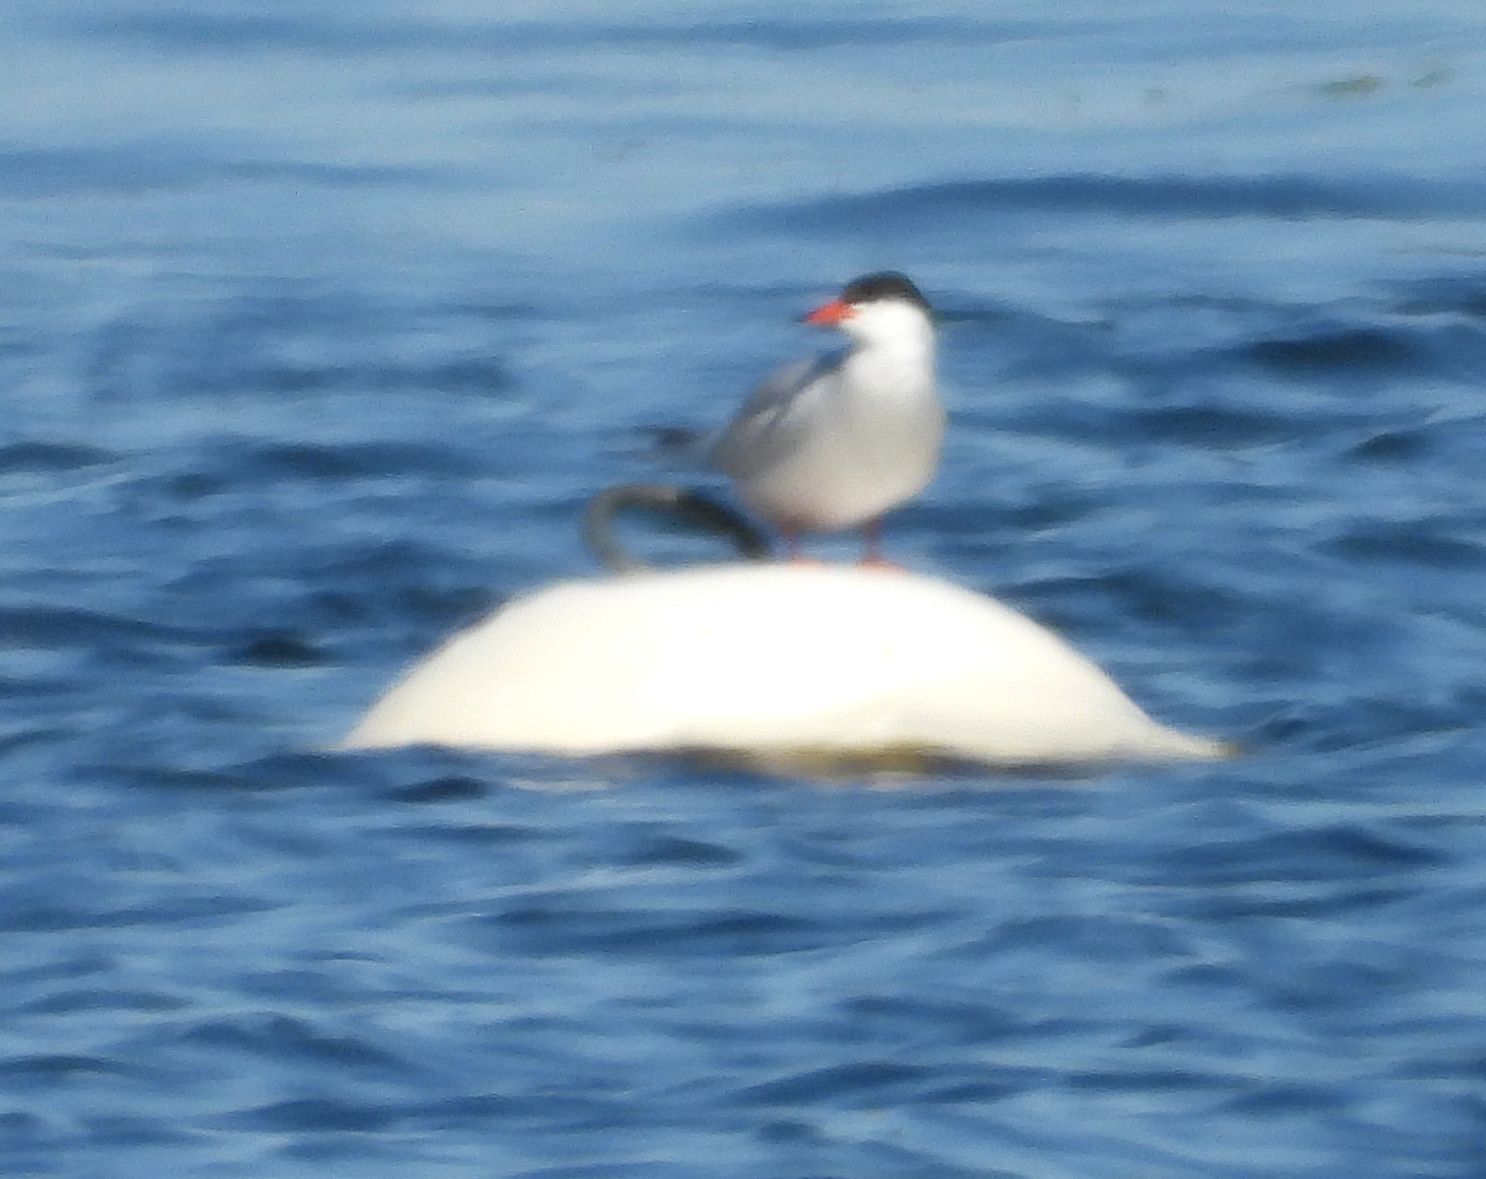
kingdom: Animalia
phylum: Chordata
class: Aves
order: Charadriiformes
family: Laridae
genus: Sterna
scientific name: Sterna hirundo
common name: Common tern
